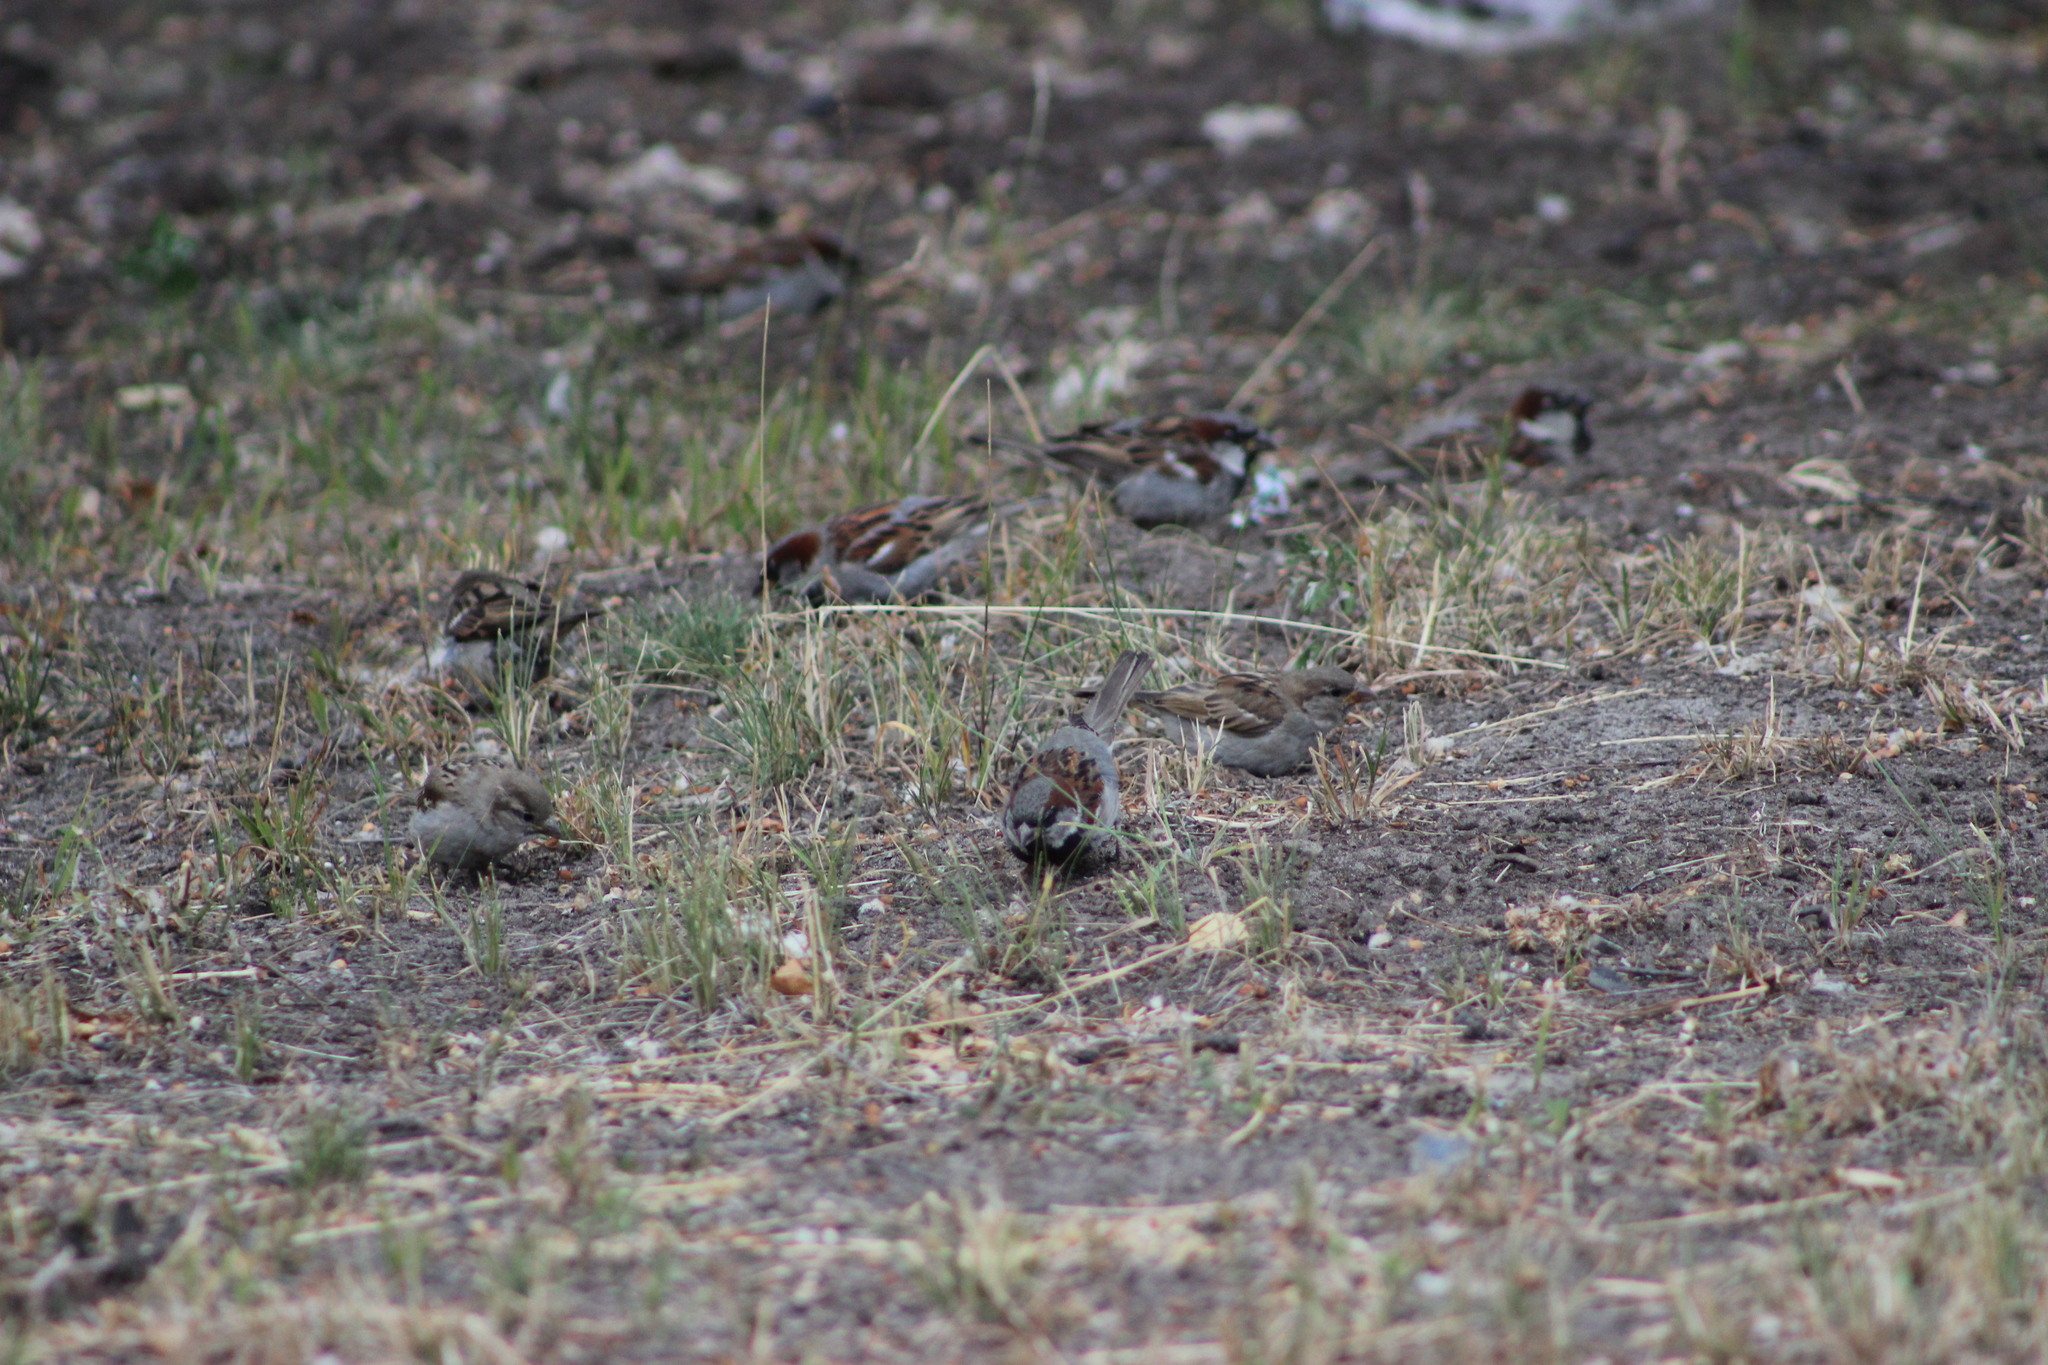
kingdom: Animalia
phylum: Chordata
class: Aves
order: Passeriformes
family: Passeridae
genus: Passer
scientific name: Passer domesticus
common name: House sparrow
